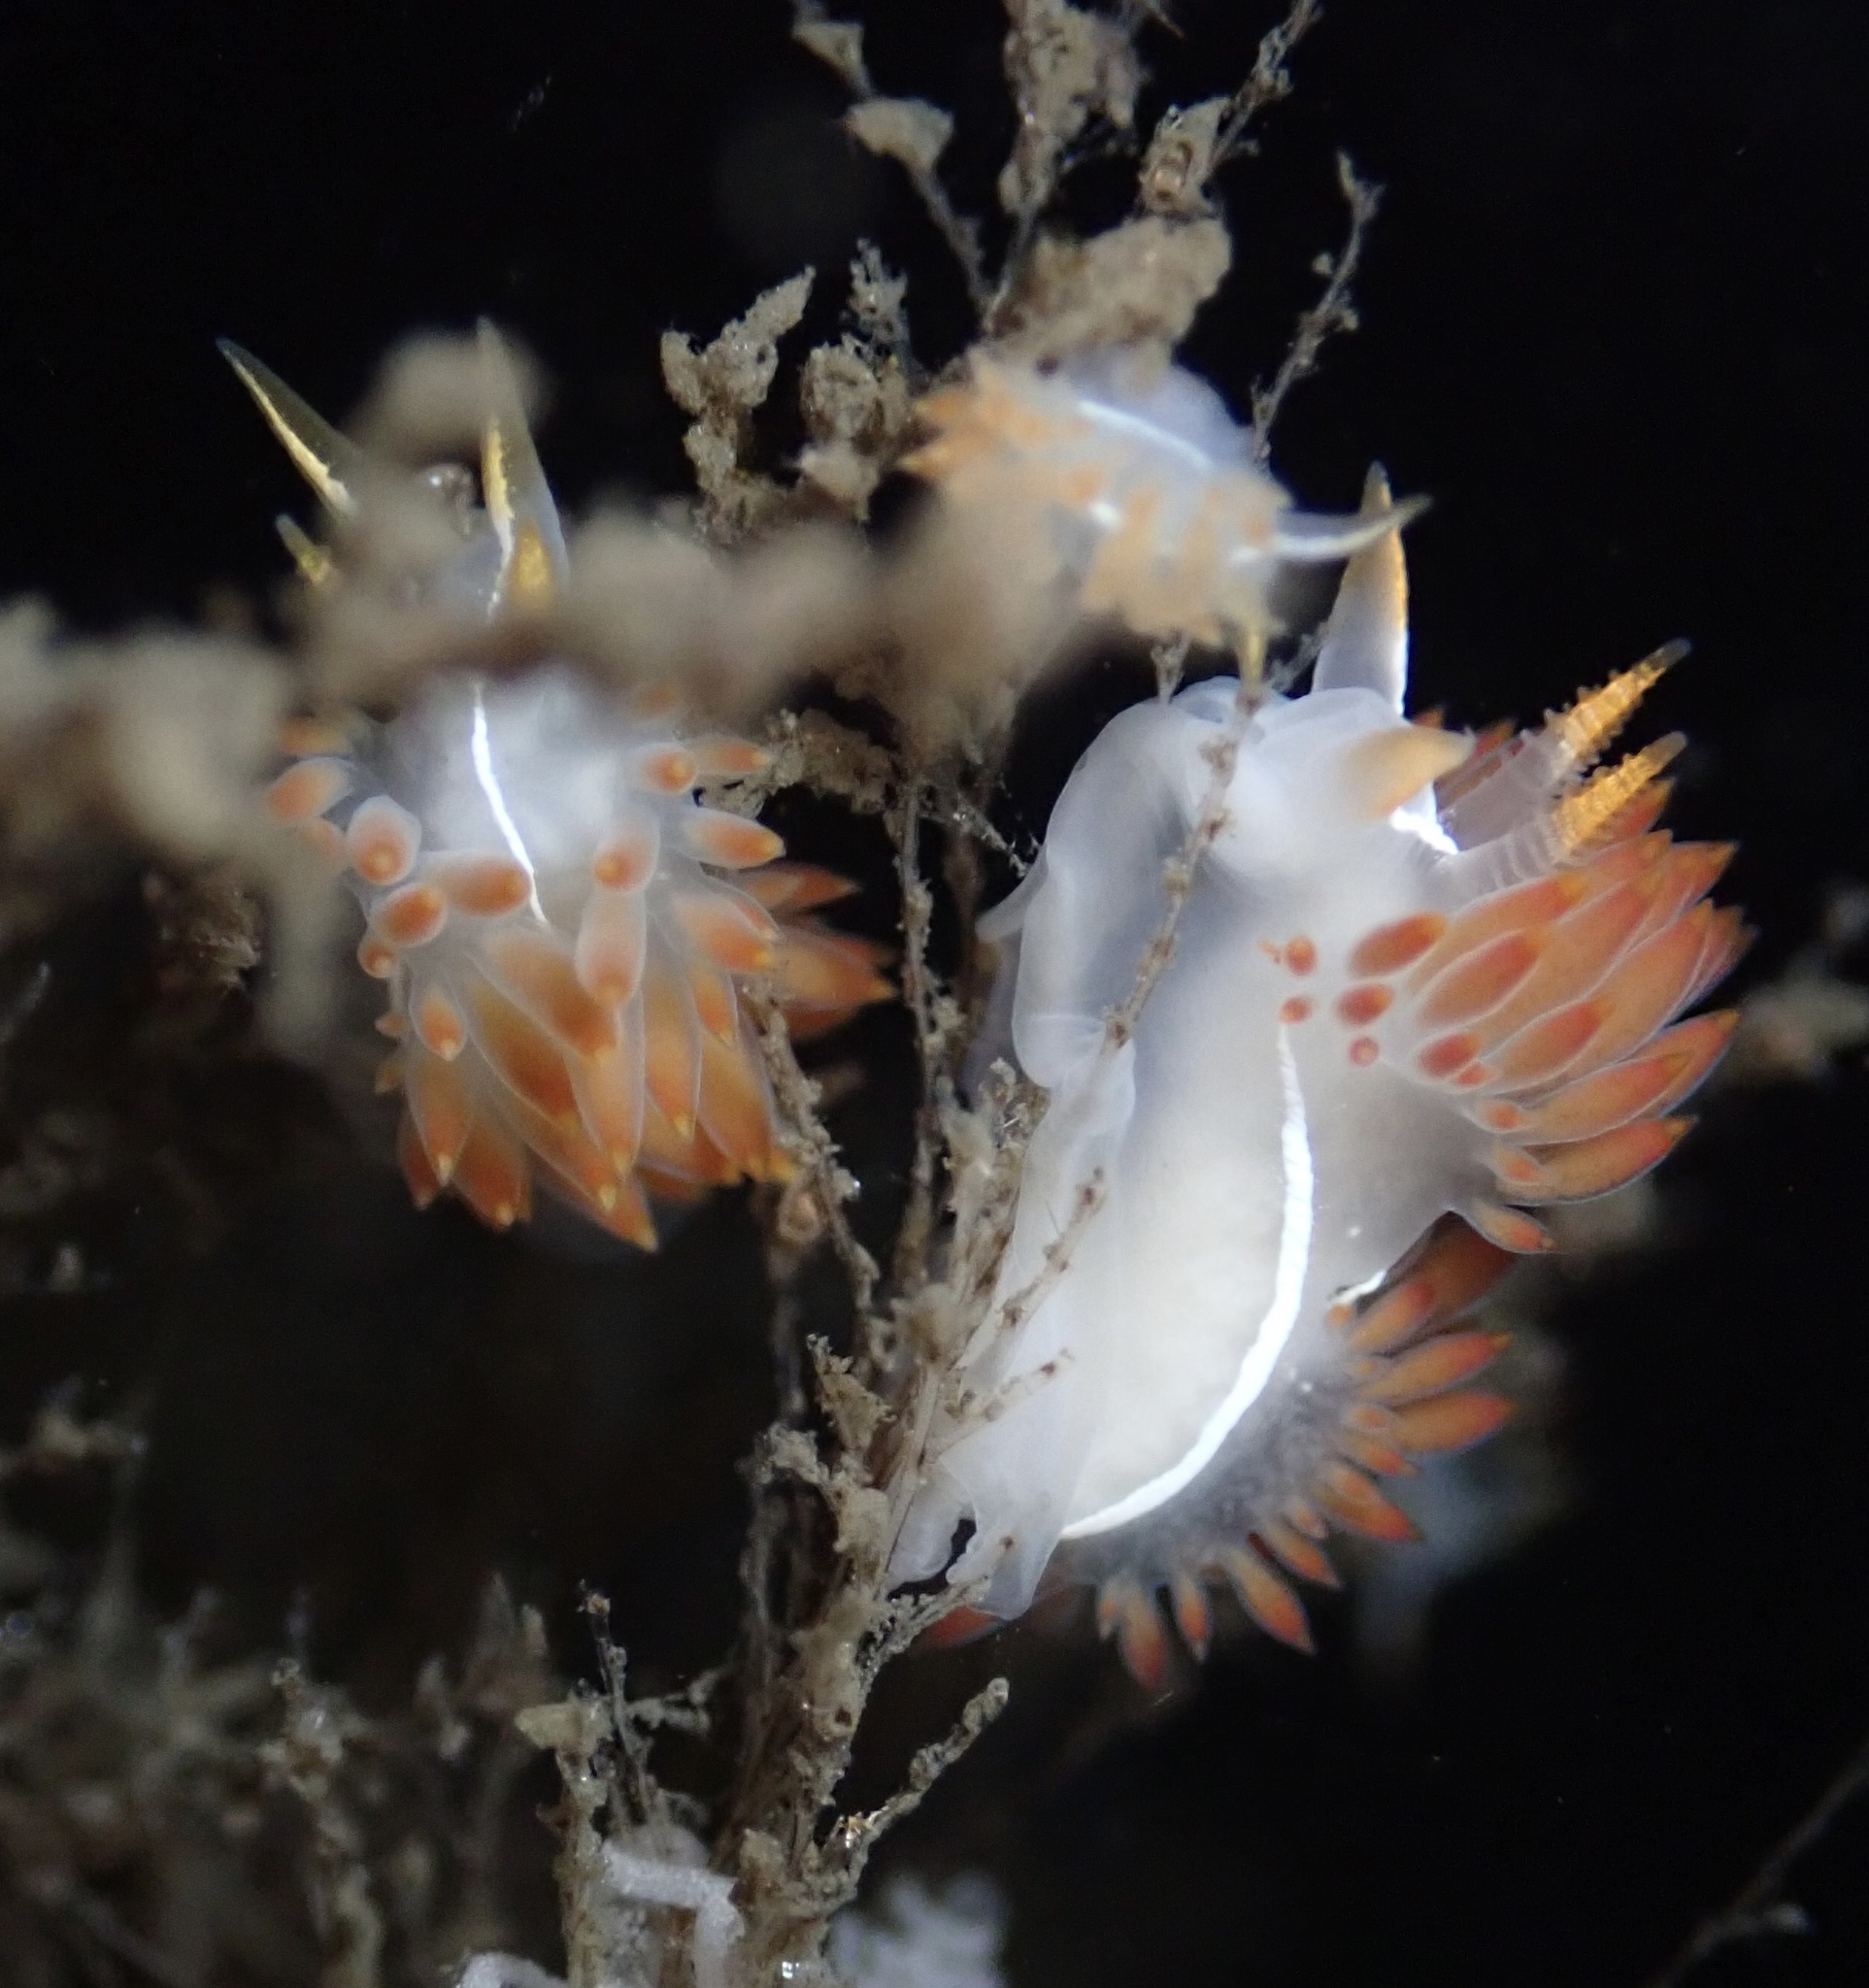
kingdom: Animalia
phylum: Mollusca
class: Gastropoda
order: Nudibranchia
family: Coryphellidae
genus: Coryphella
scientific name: Coryphella trilineata
